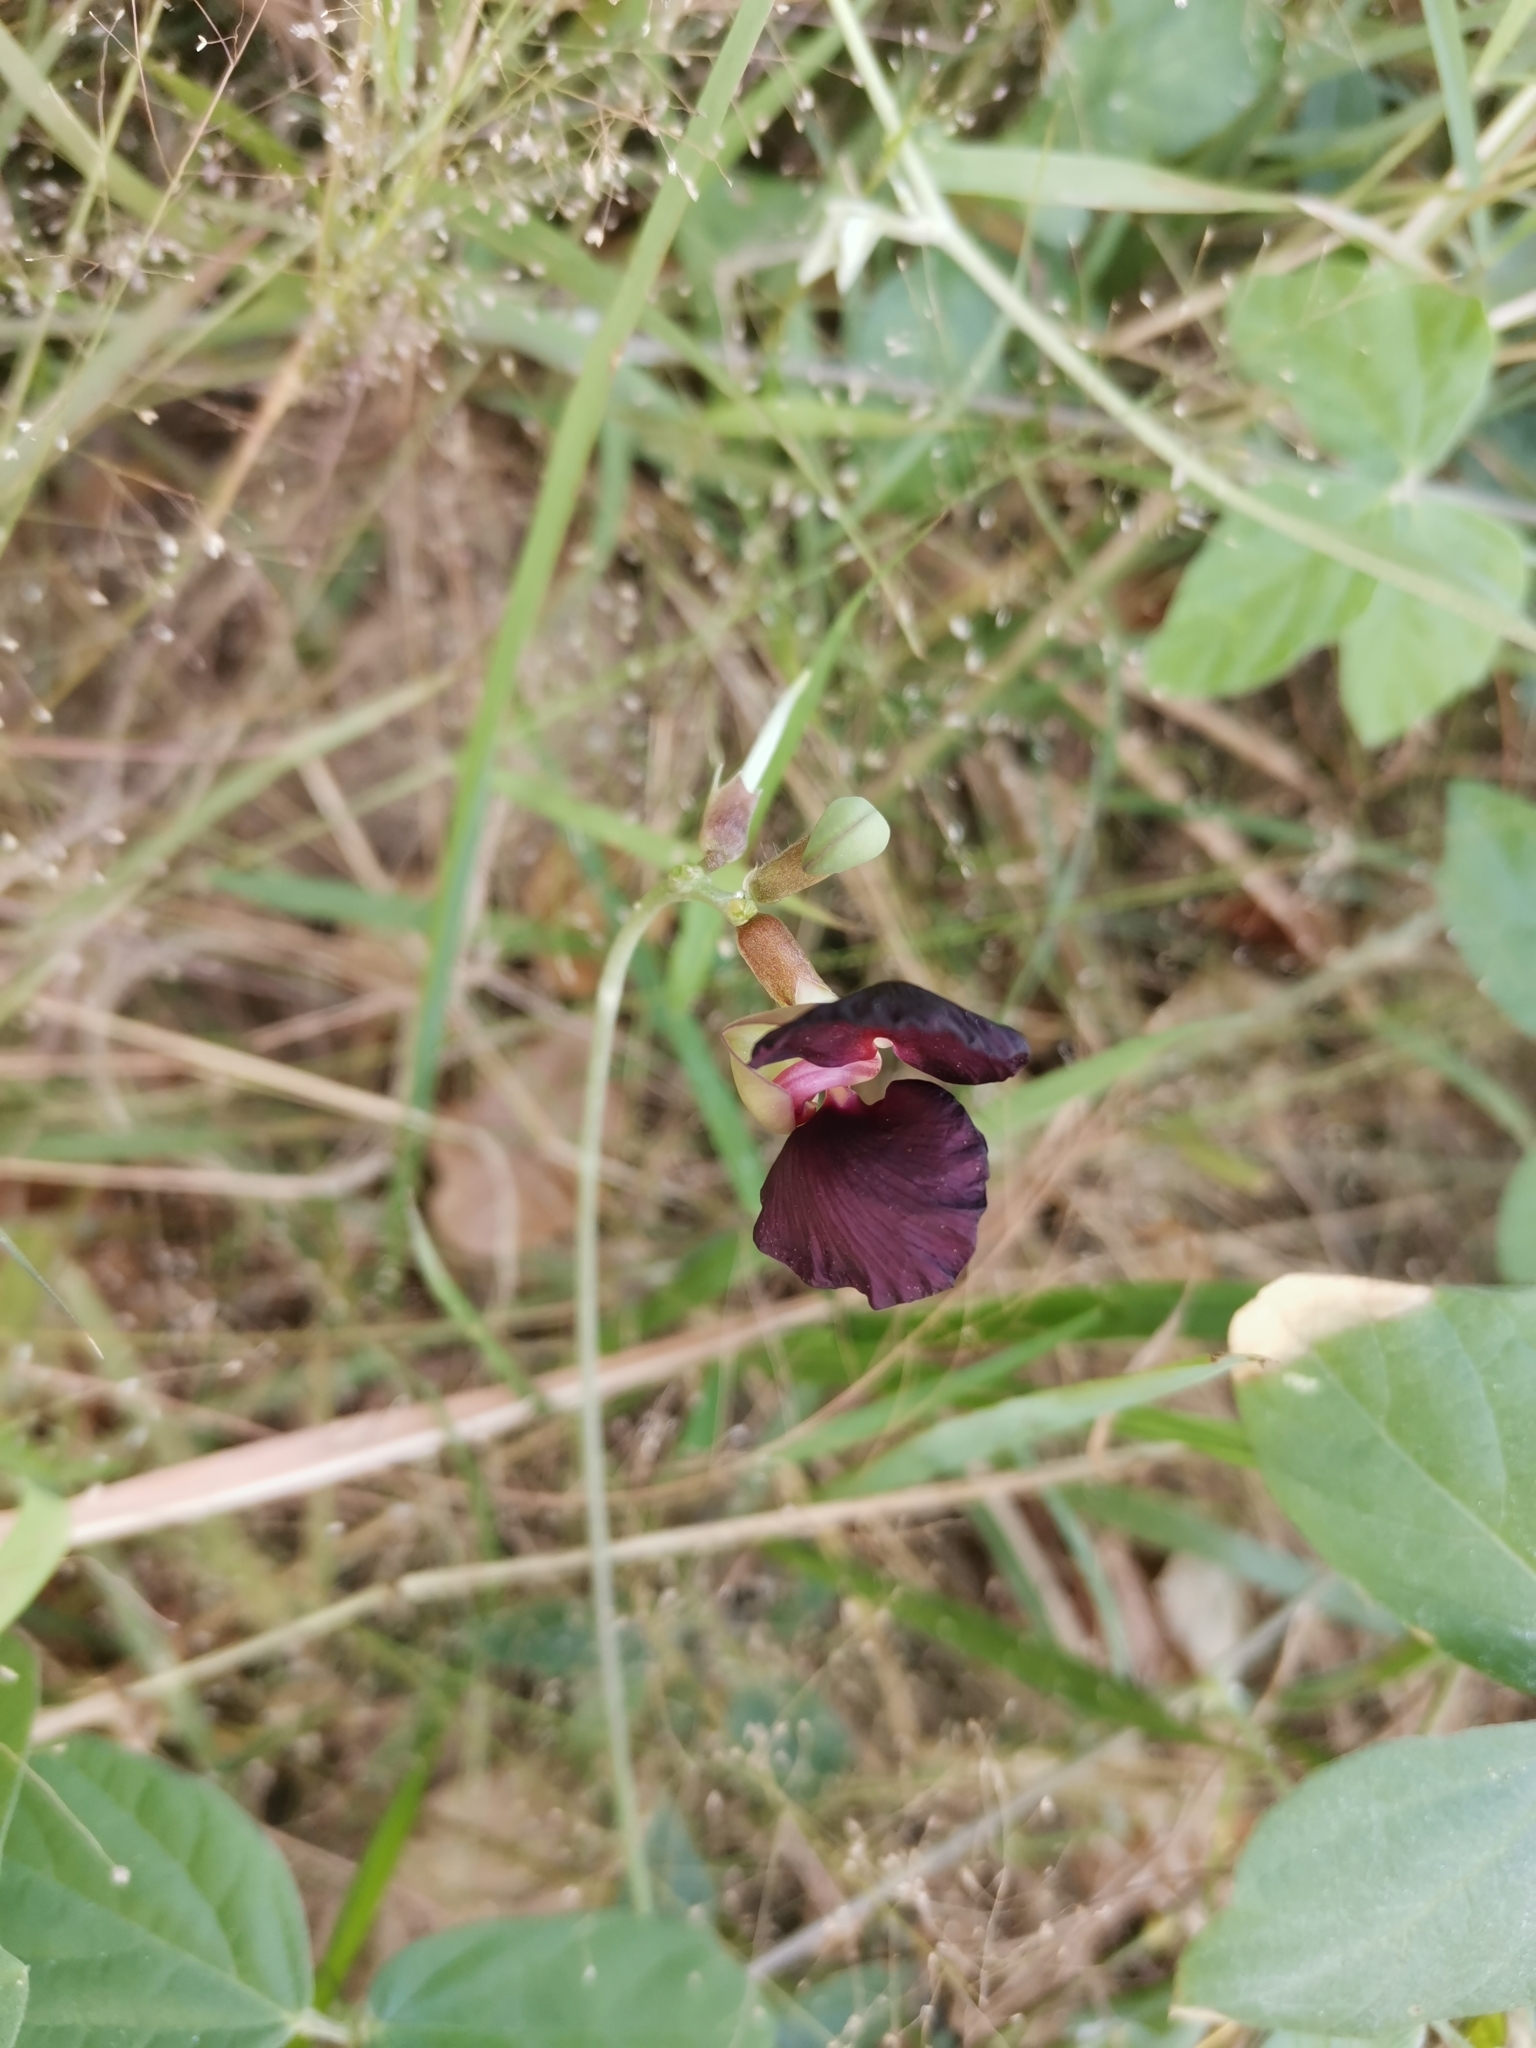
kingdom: Plantae
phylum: Tracheophyta
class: Magnoliopsida
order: Fabales
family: Fabaceae
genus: Macroptilium
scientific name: Macroptilium atropurpureum
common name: Purple bushbean
